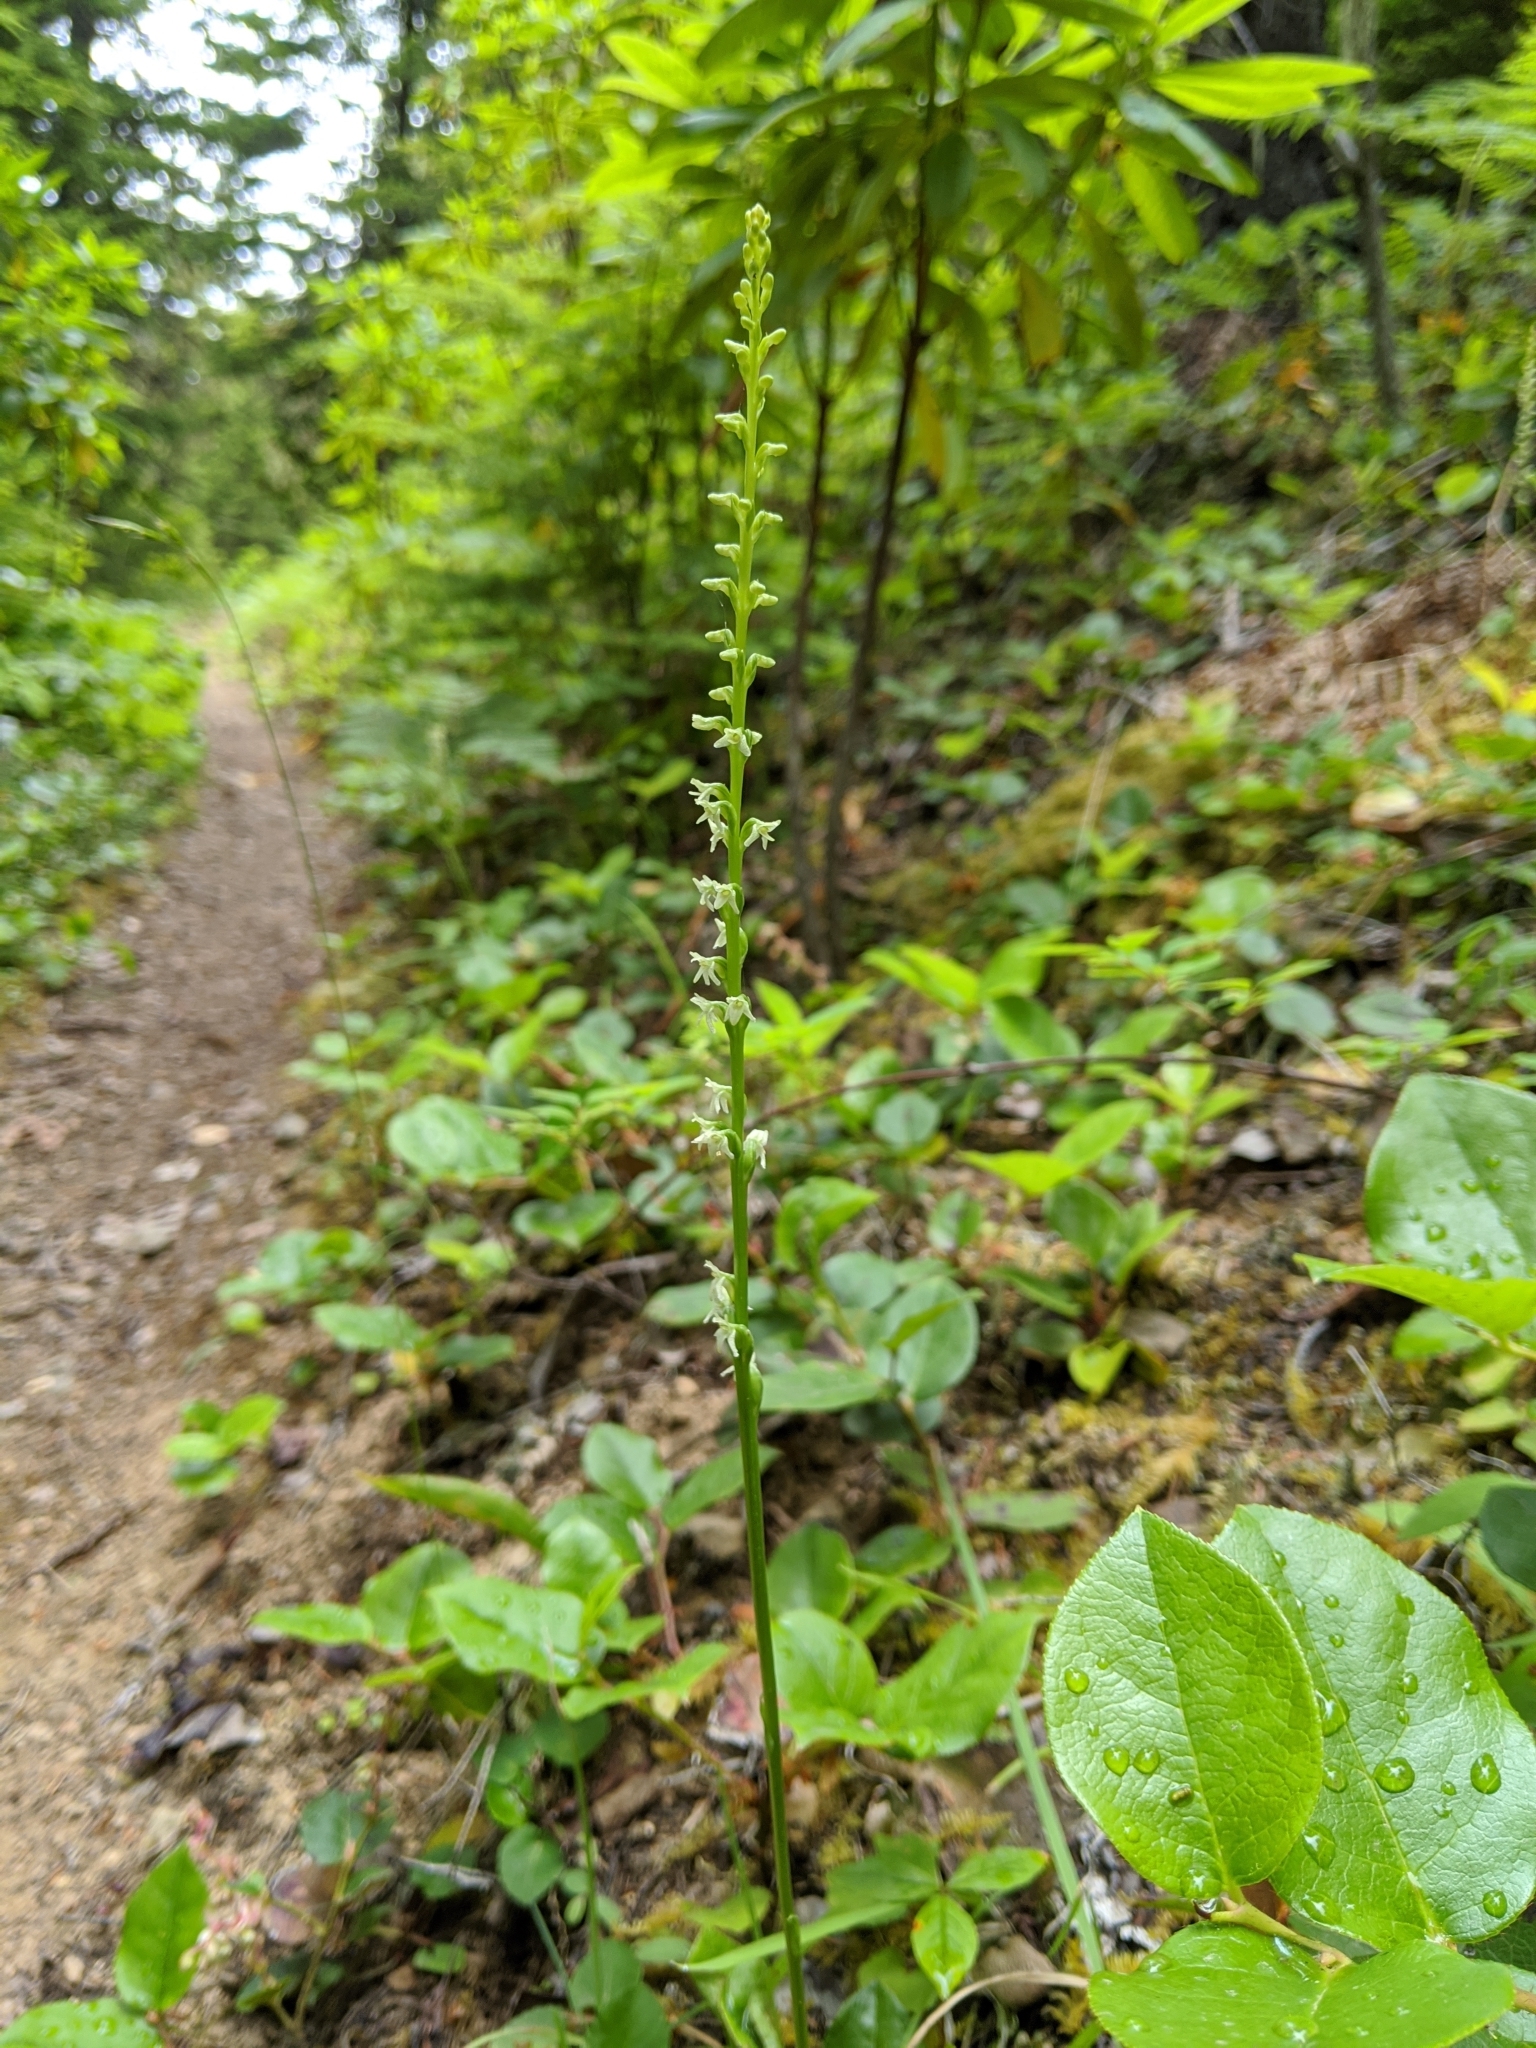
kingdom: Plantae
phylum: Tracheophyta
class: Liliopsida
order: Asparagales
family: Orchidaceae
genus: Platanthera
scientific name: Platanthera ephemerantha
